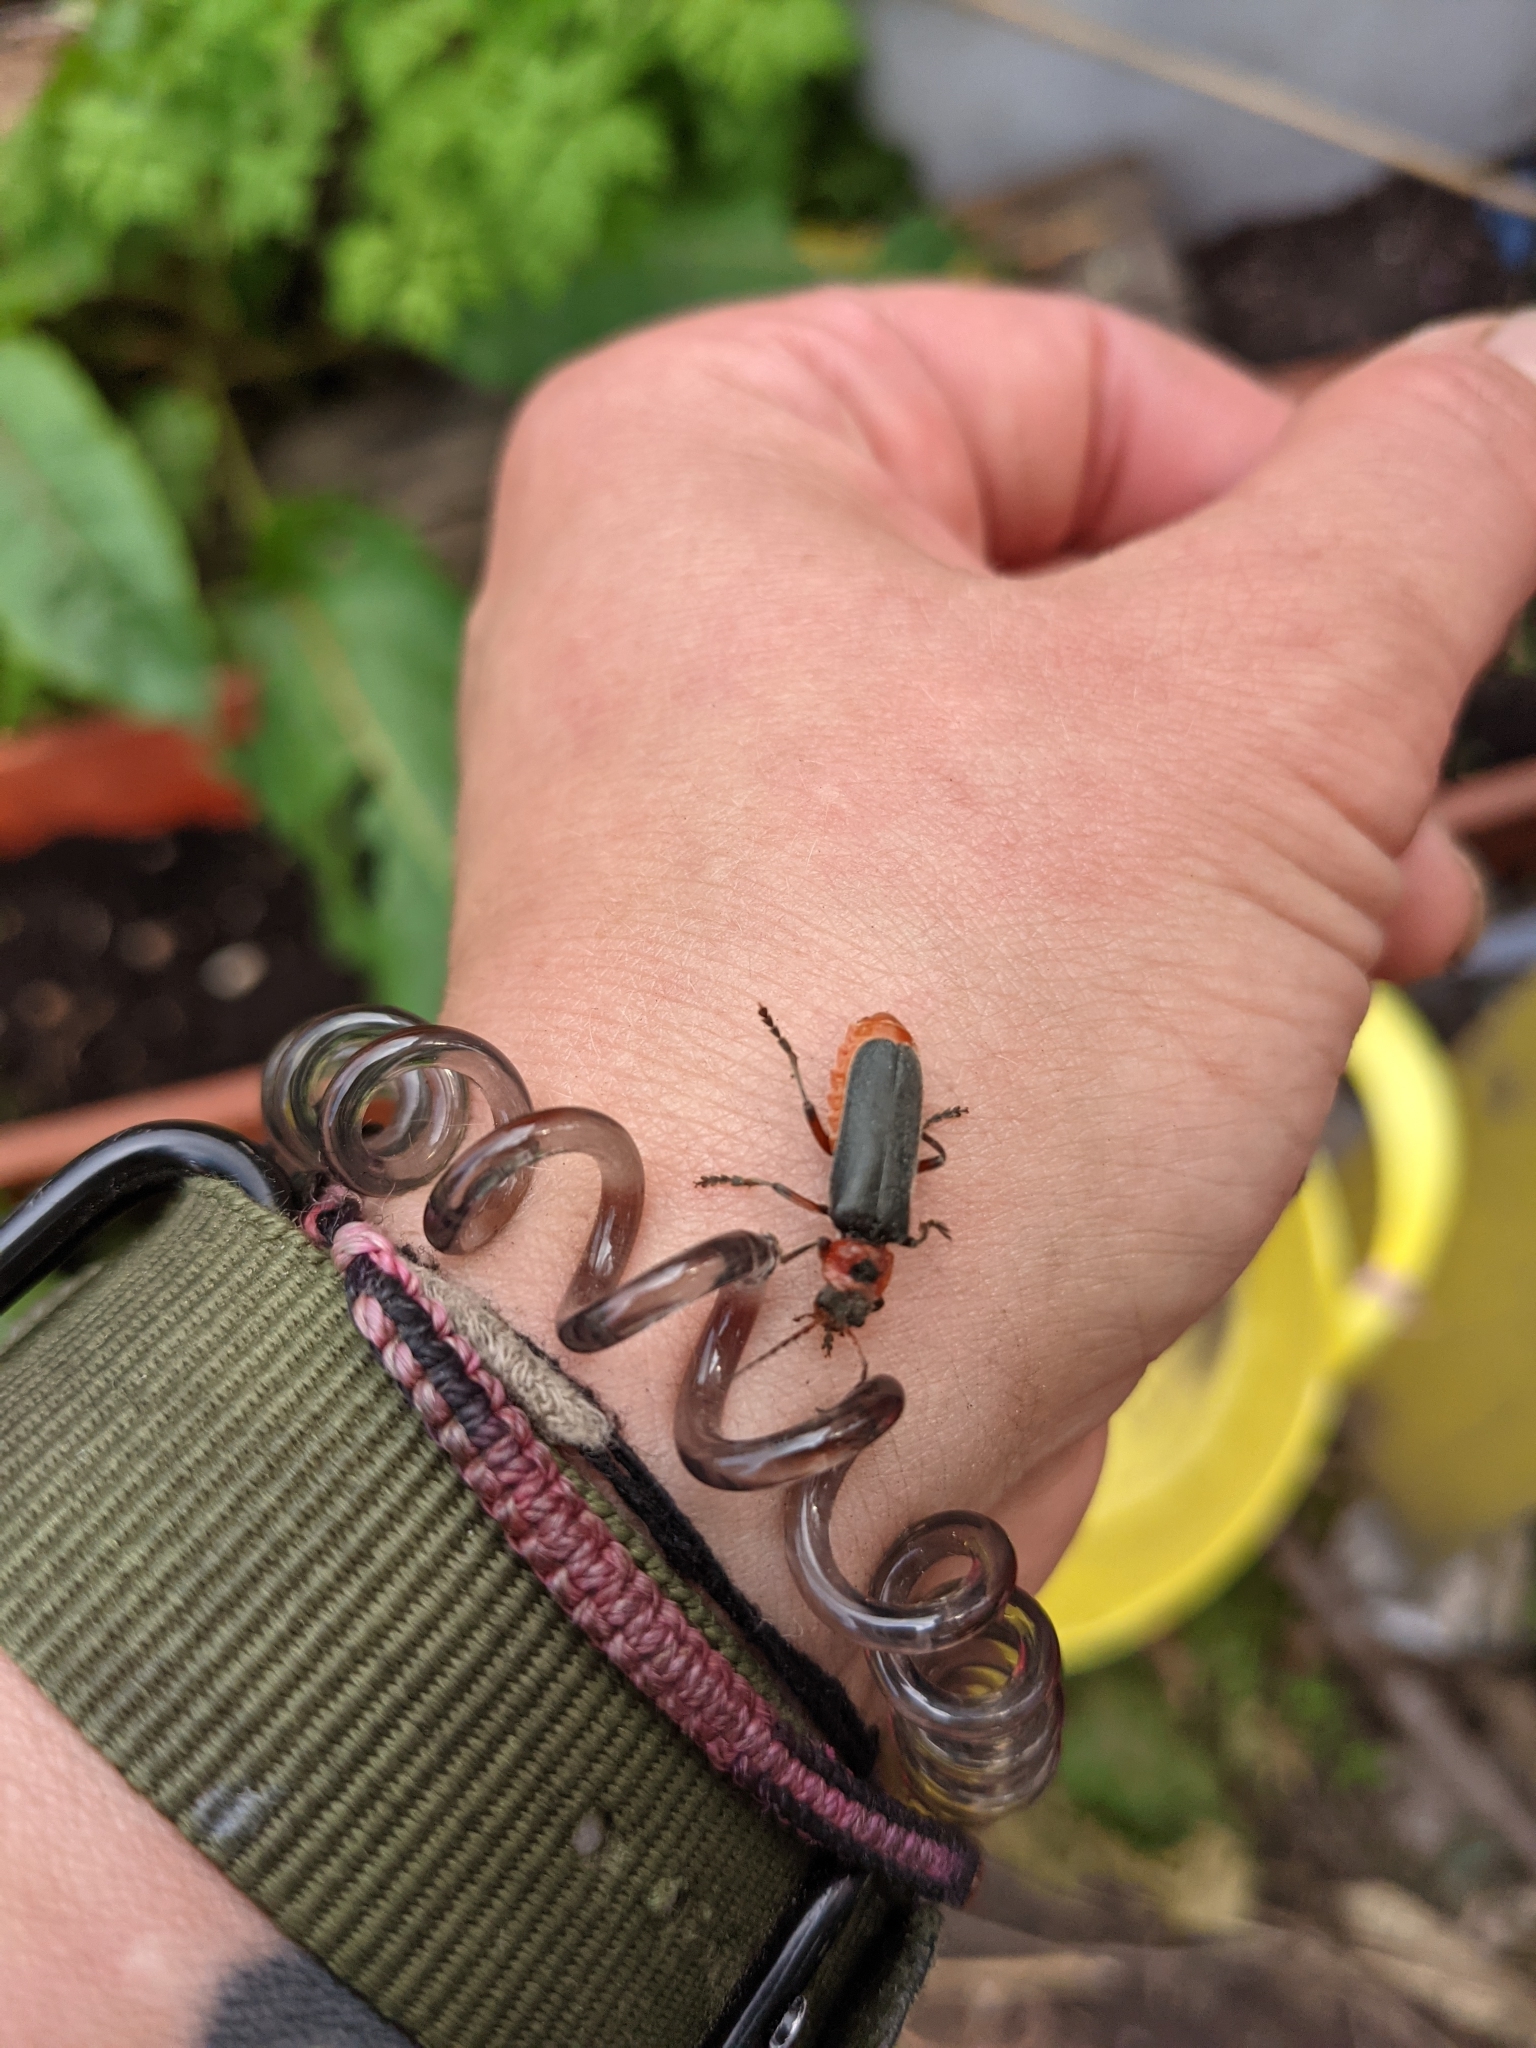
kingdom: Animalia
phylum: Arthropoda
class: Insecta
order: Coleoptera
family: Cantharidae
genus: Cantharis
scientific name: Cantharis rustica
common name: Soldier beetle
